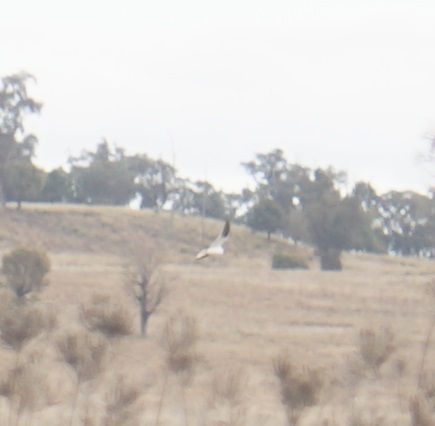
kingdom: Animalia
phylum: Chordata
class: Aves
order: Accipitriformes
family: Accipitridae
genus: Elanus
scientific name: Elanus axillaris
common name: Black-shouldered kite
